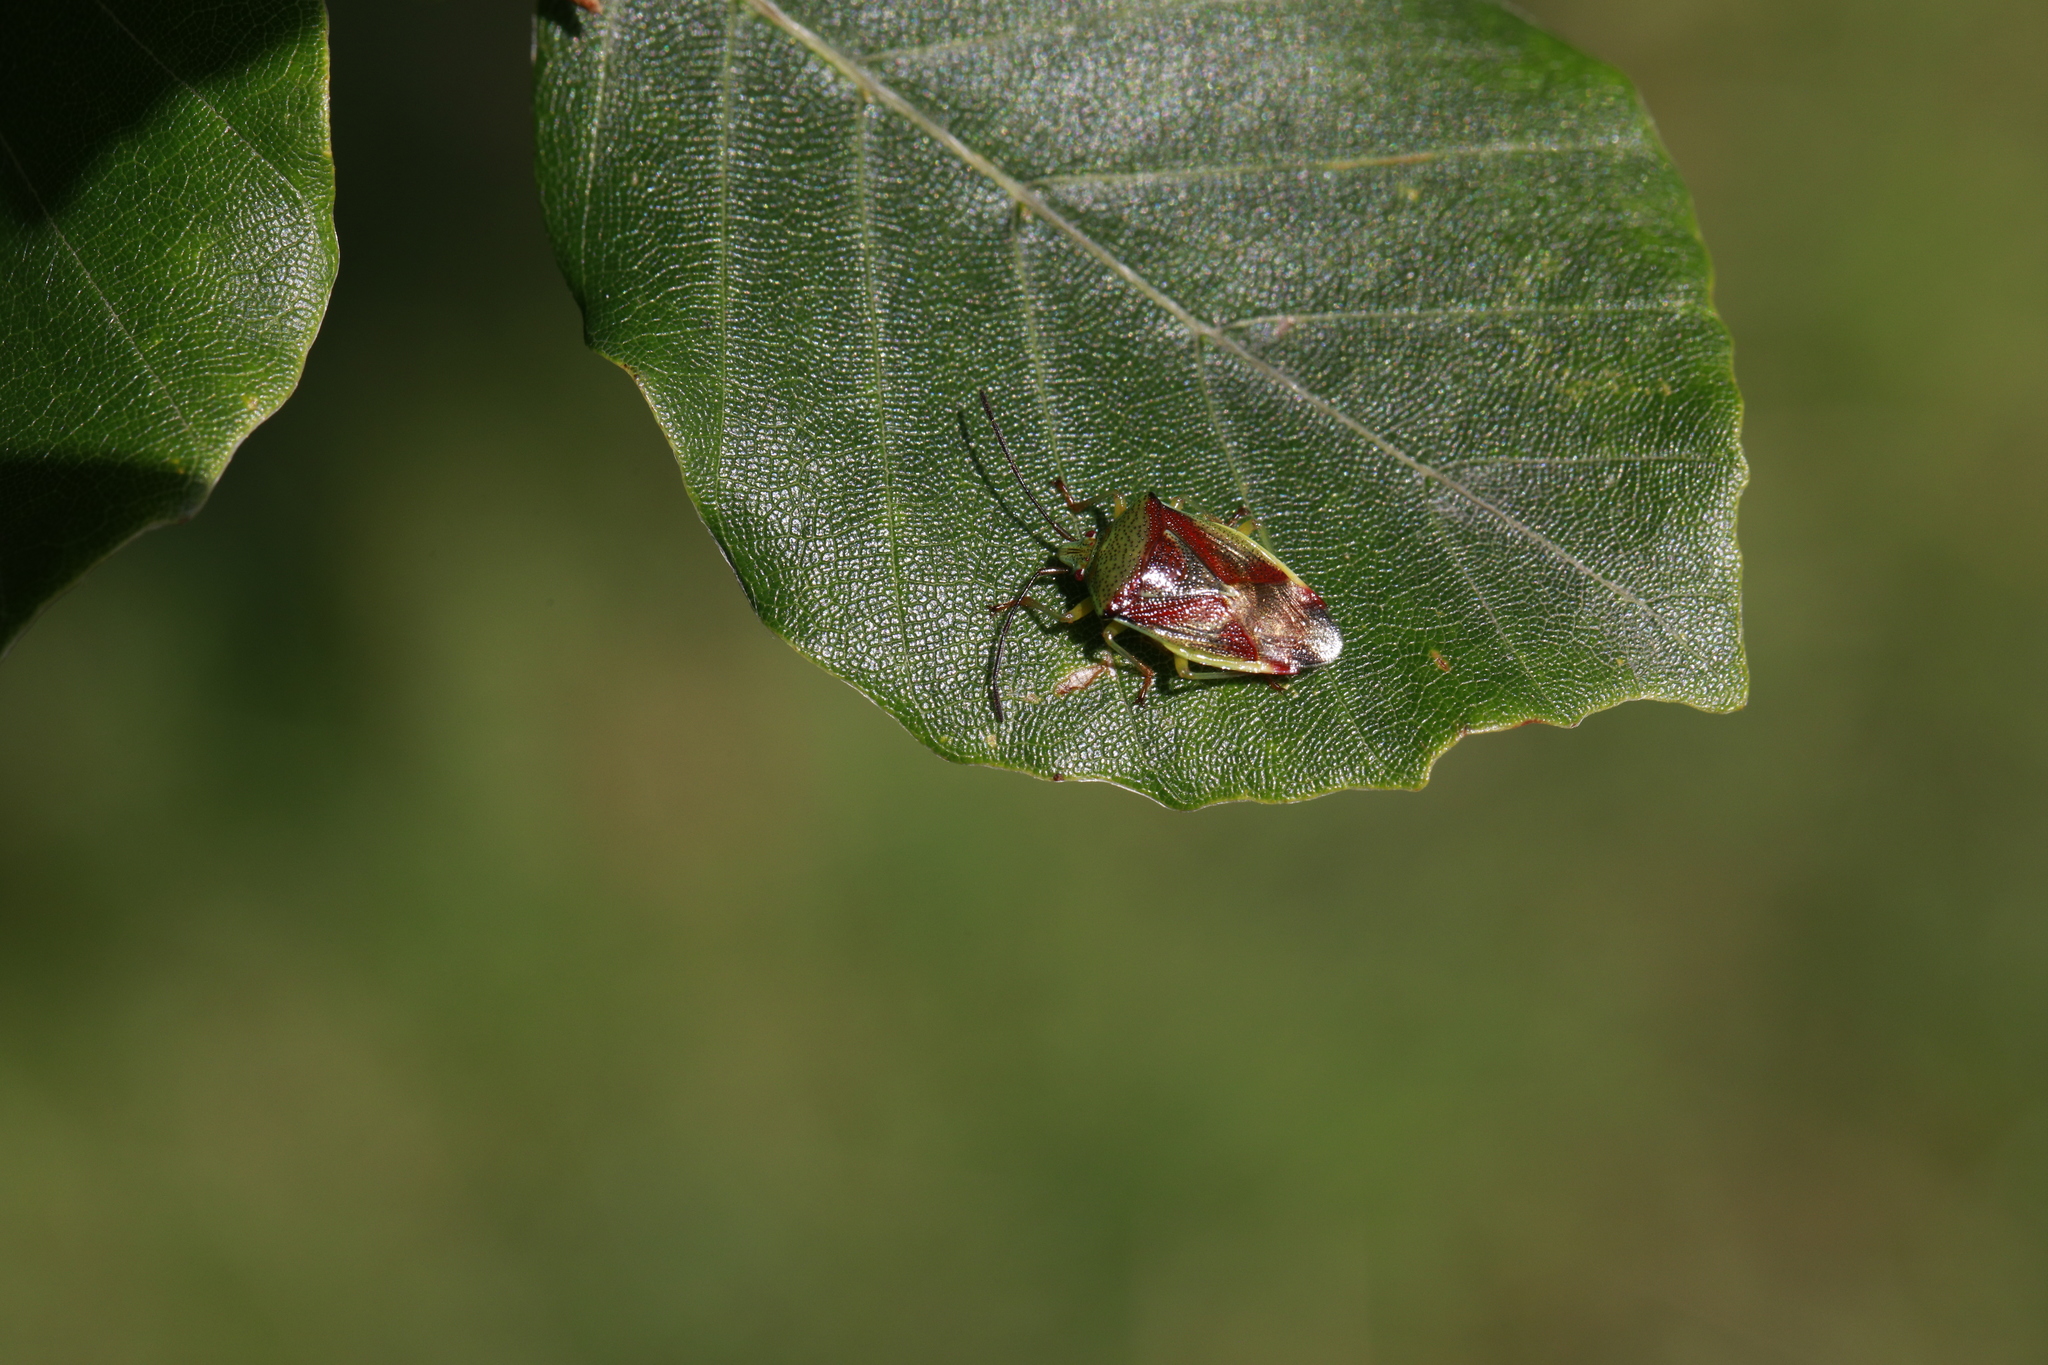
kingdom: Animalia
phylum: Arthropoda
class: Insecta
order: Hemiptera
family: Acanthosomatidae
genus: Elasmostethus
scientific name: Elasmostethus interstinctus
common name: Birch shieldbug
